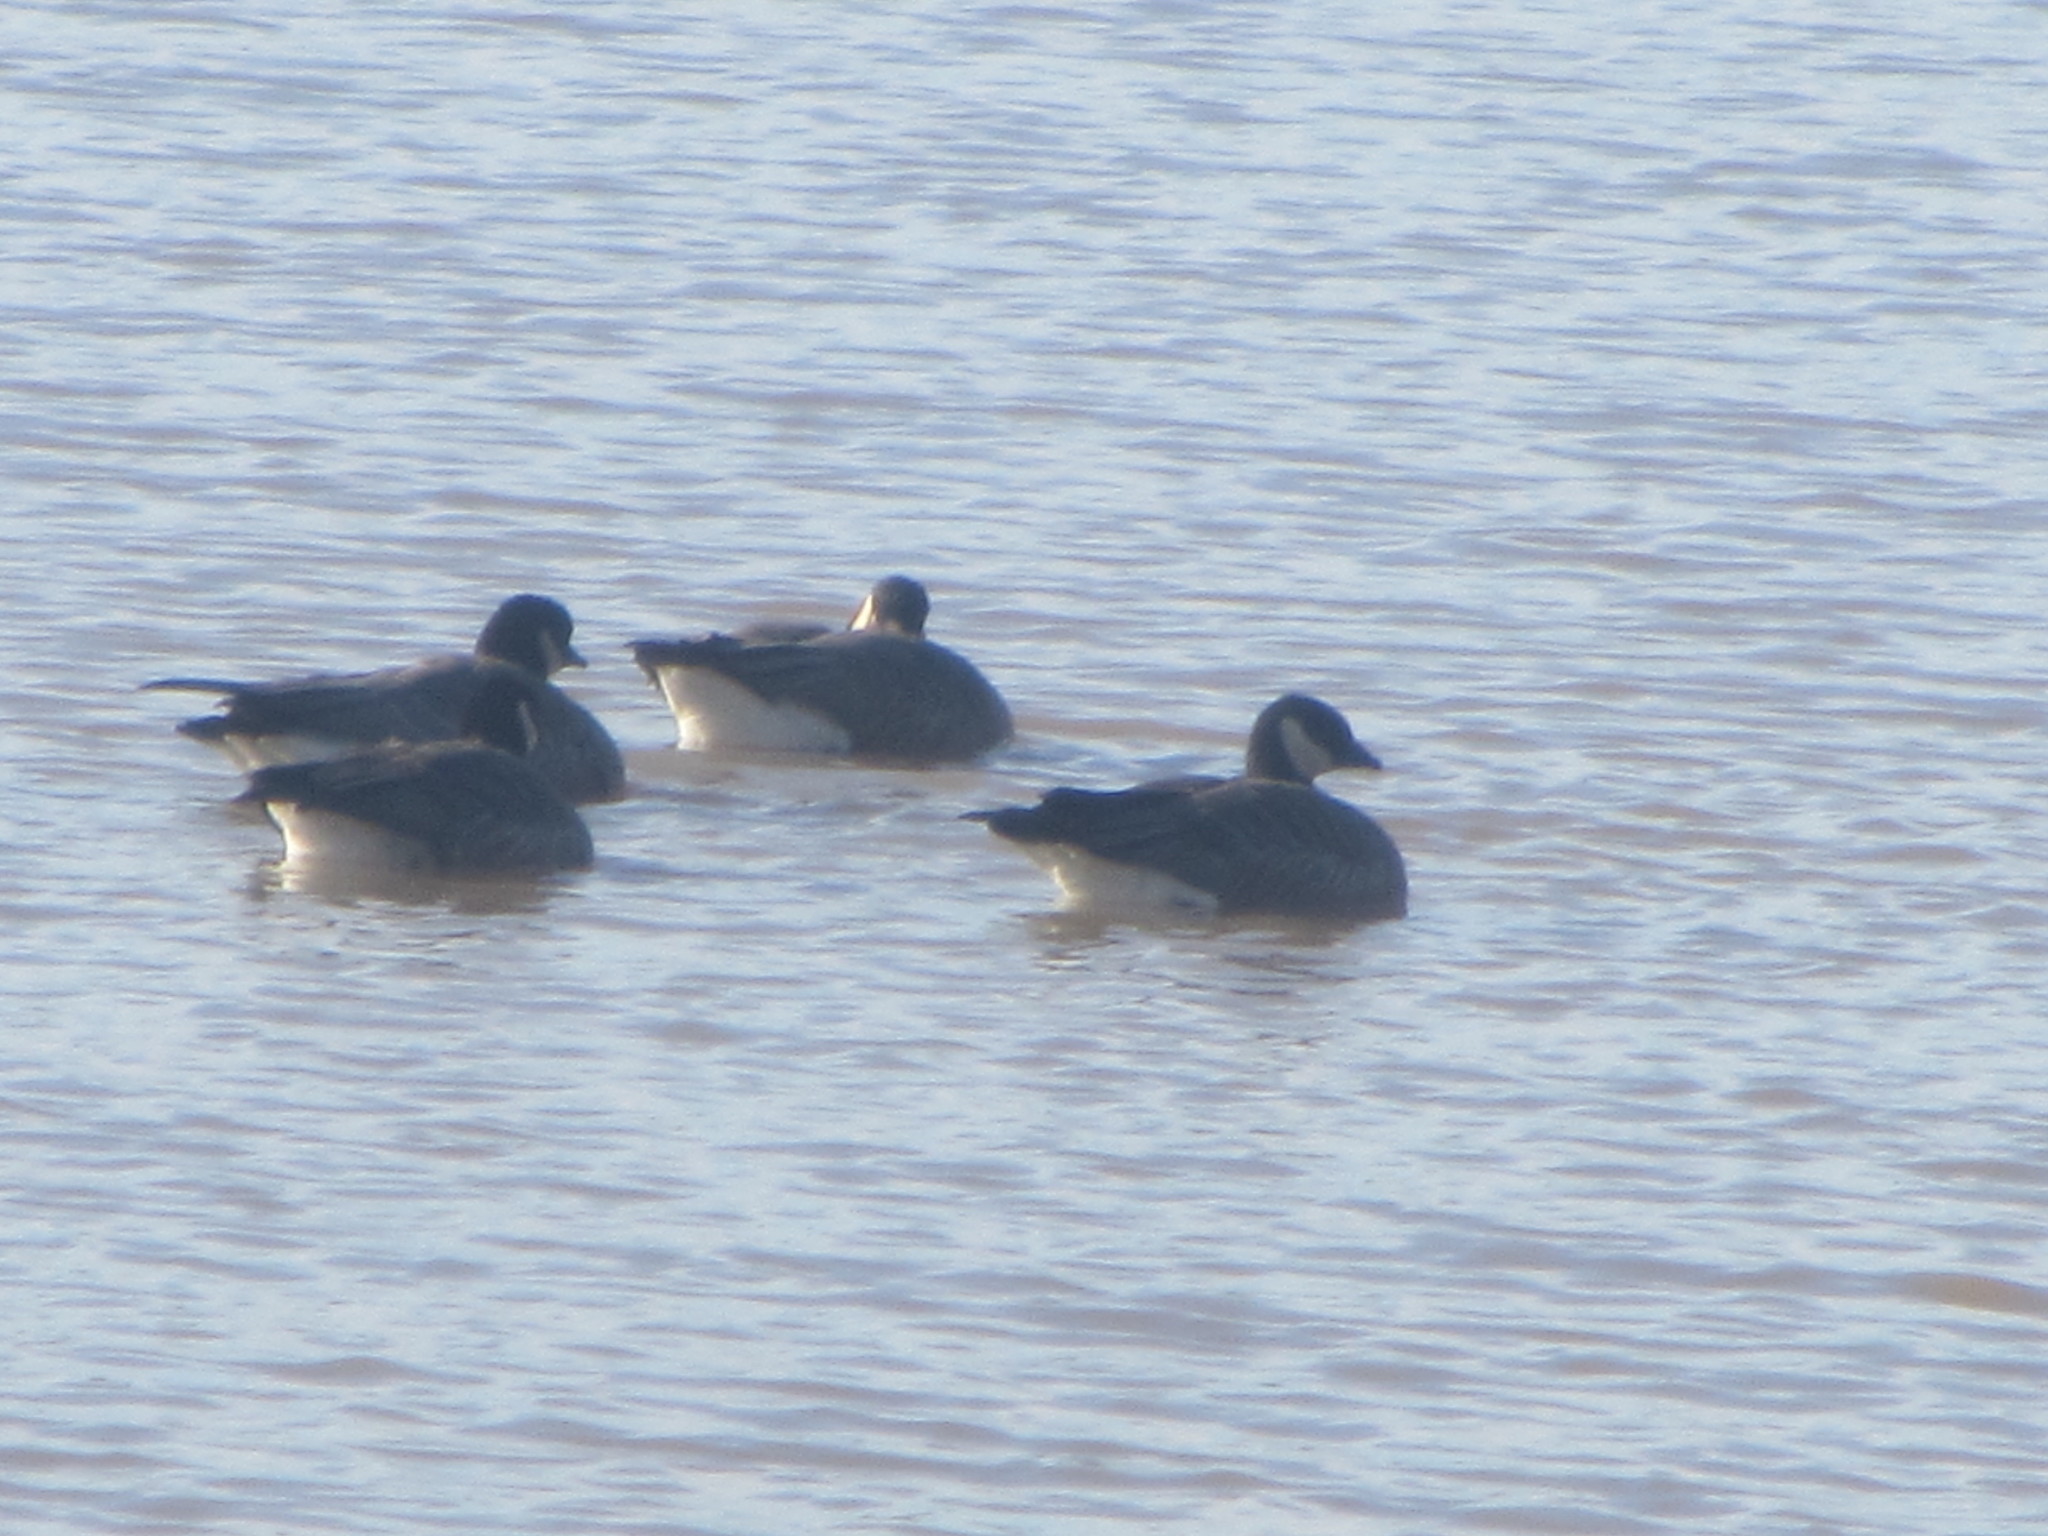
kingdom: Animalia
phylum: Chordata
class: Aves
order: Anseriformes
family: Anatidae
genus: Branta
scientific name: Branta hutchinsii
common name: Cackling goose
